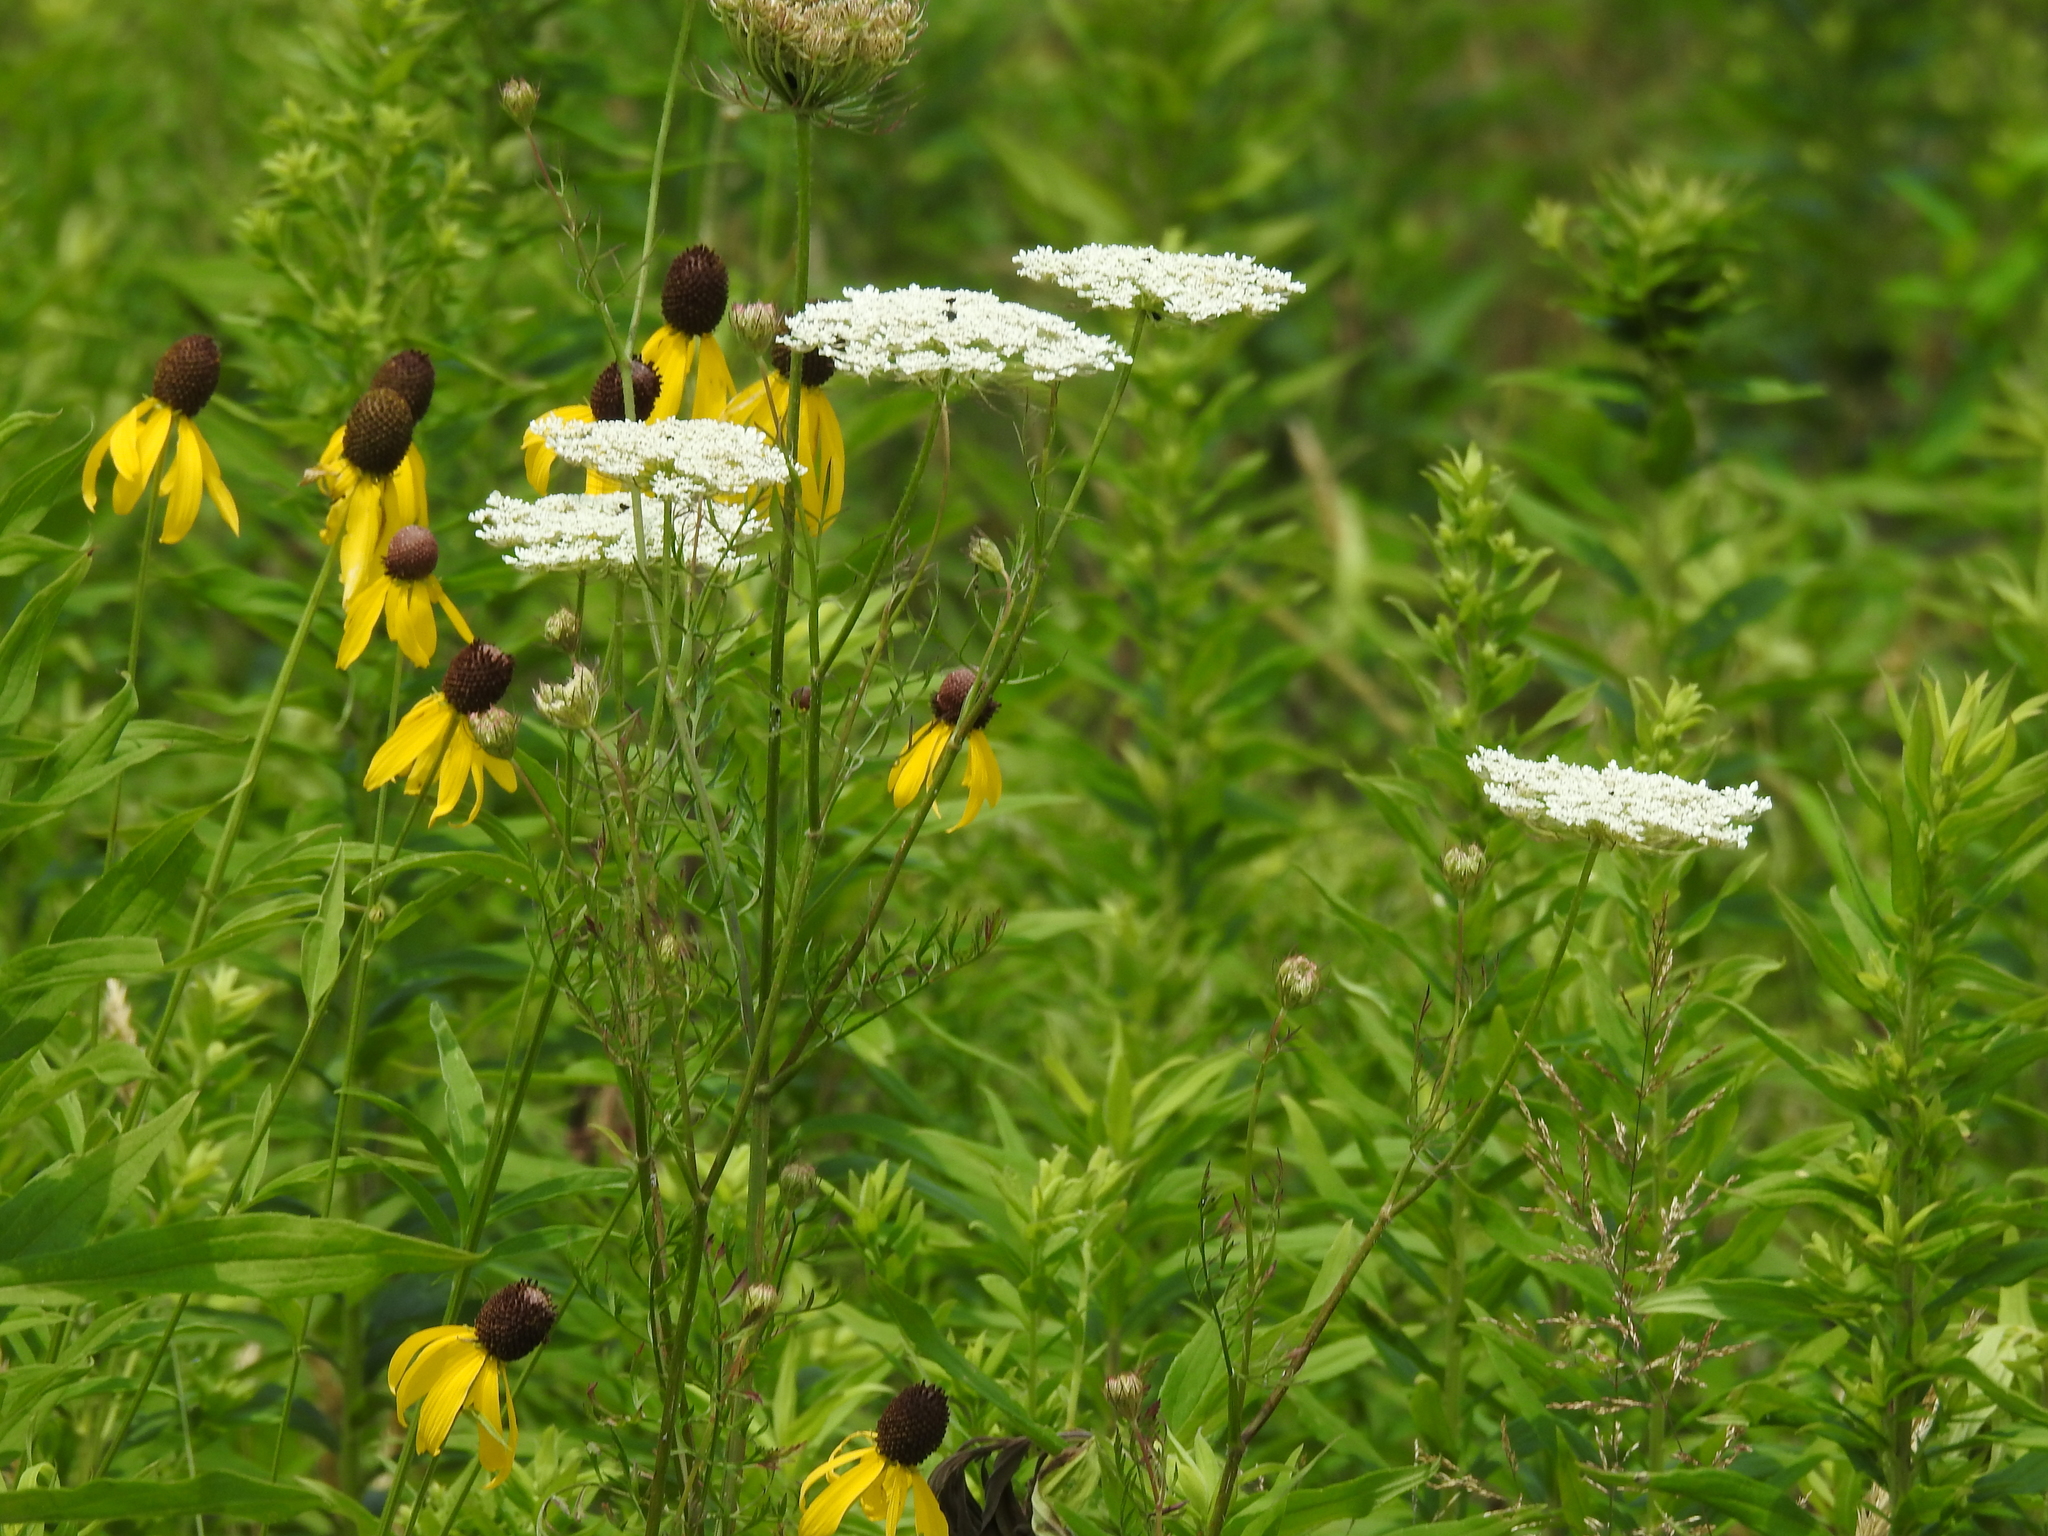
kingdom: Plantae
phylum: Tracheophyta
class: Magnoliopsida
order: Apiales
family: Apiaceae
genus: Daucus
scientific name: Daucus carota
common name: Wild carrot
